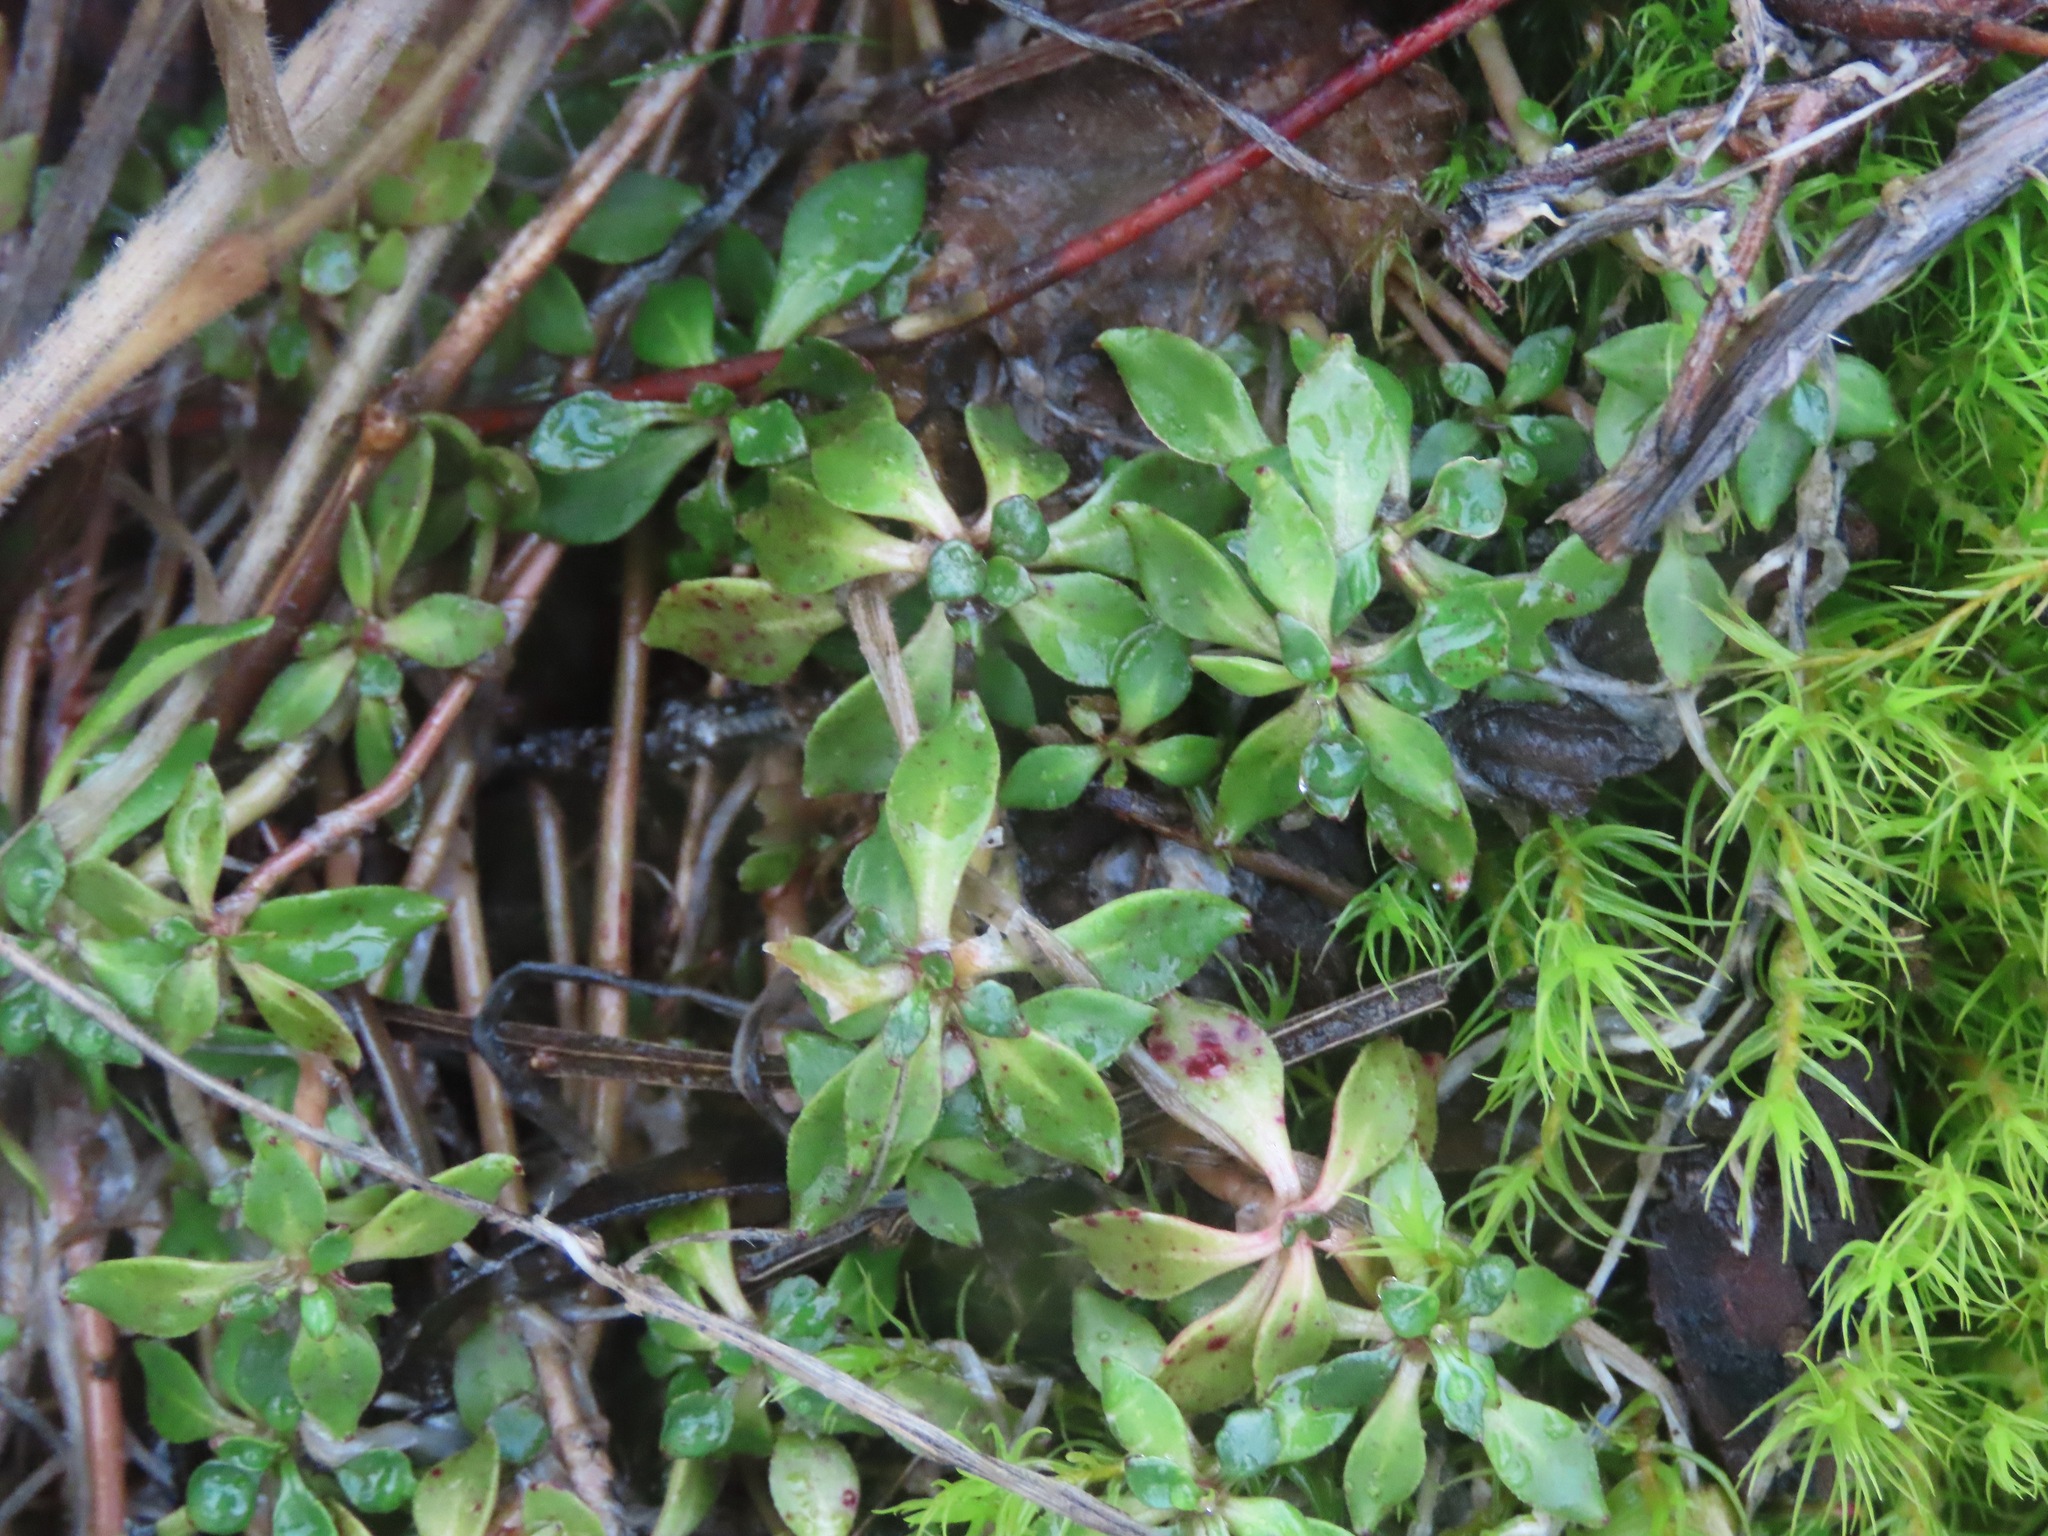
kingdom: Plantae
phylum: Tracheophyta
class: Magnoliopsida
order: Caryophyllales
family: Montiaceae
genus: Montia
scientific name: Montia parvifolia
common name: Small-leaved blinks
